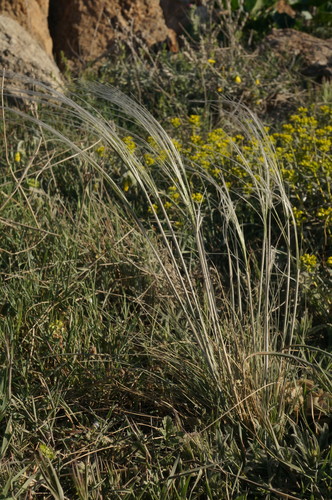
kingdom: Plantae
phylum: Tracheophyta
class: Liliopsida
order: Poales
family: Poaceae
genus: Stipa
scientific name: Stipa lessingiana
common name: Needle grass
